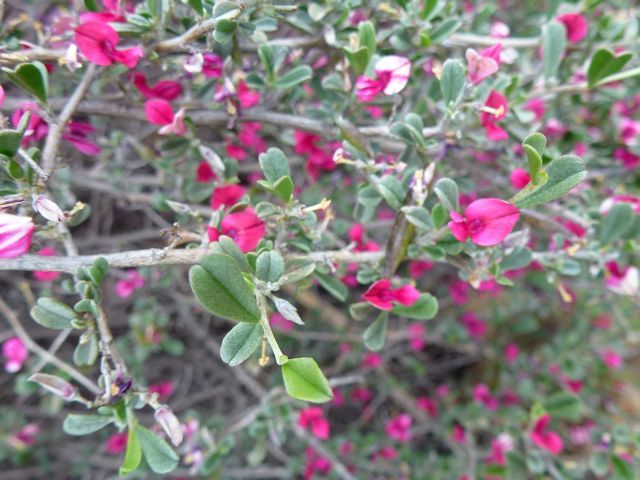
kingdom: Plantae
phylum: Tracheophyta
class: Magnoliopsida
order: Fabales
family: Fabaceae
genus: Indigofera
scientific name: Indigofera obcordata
